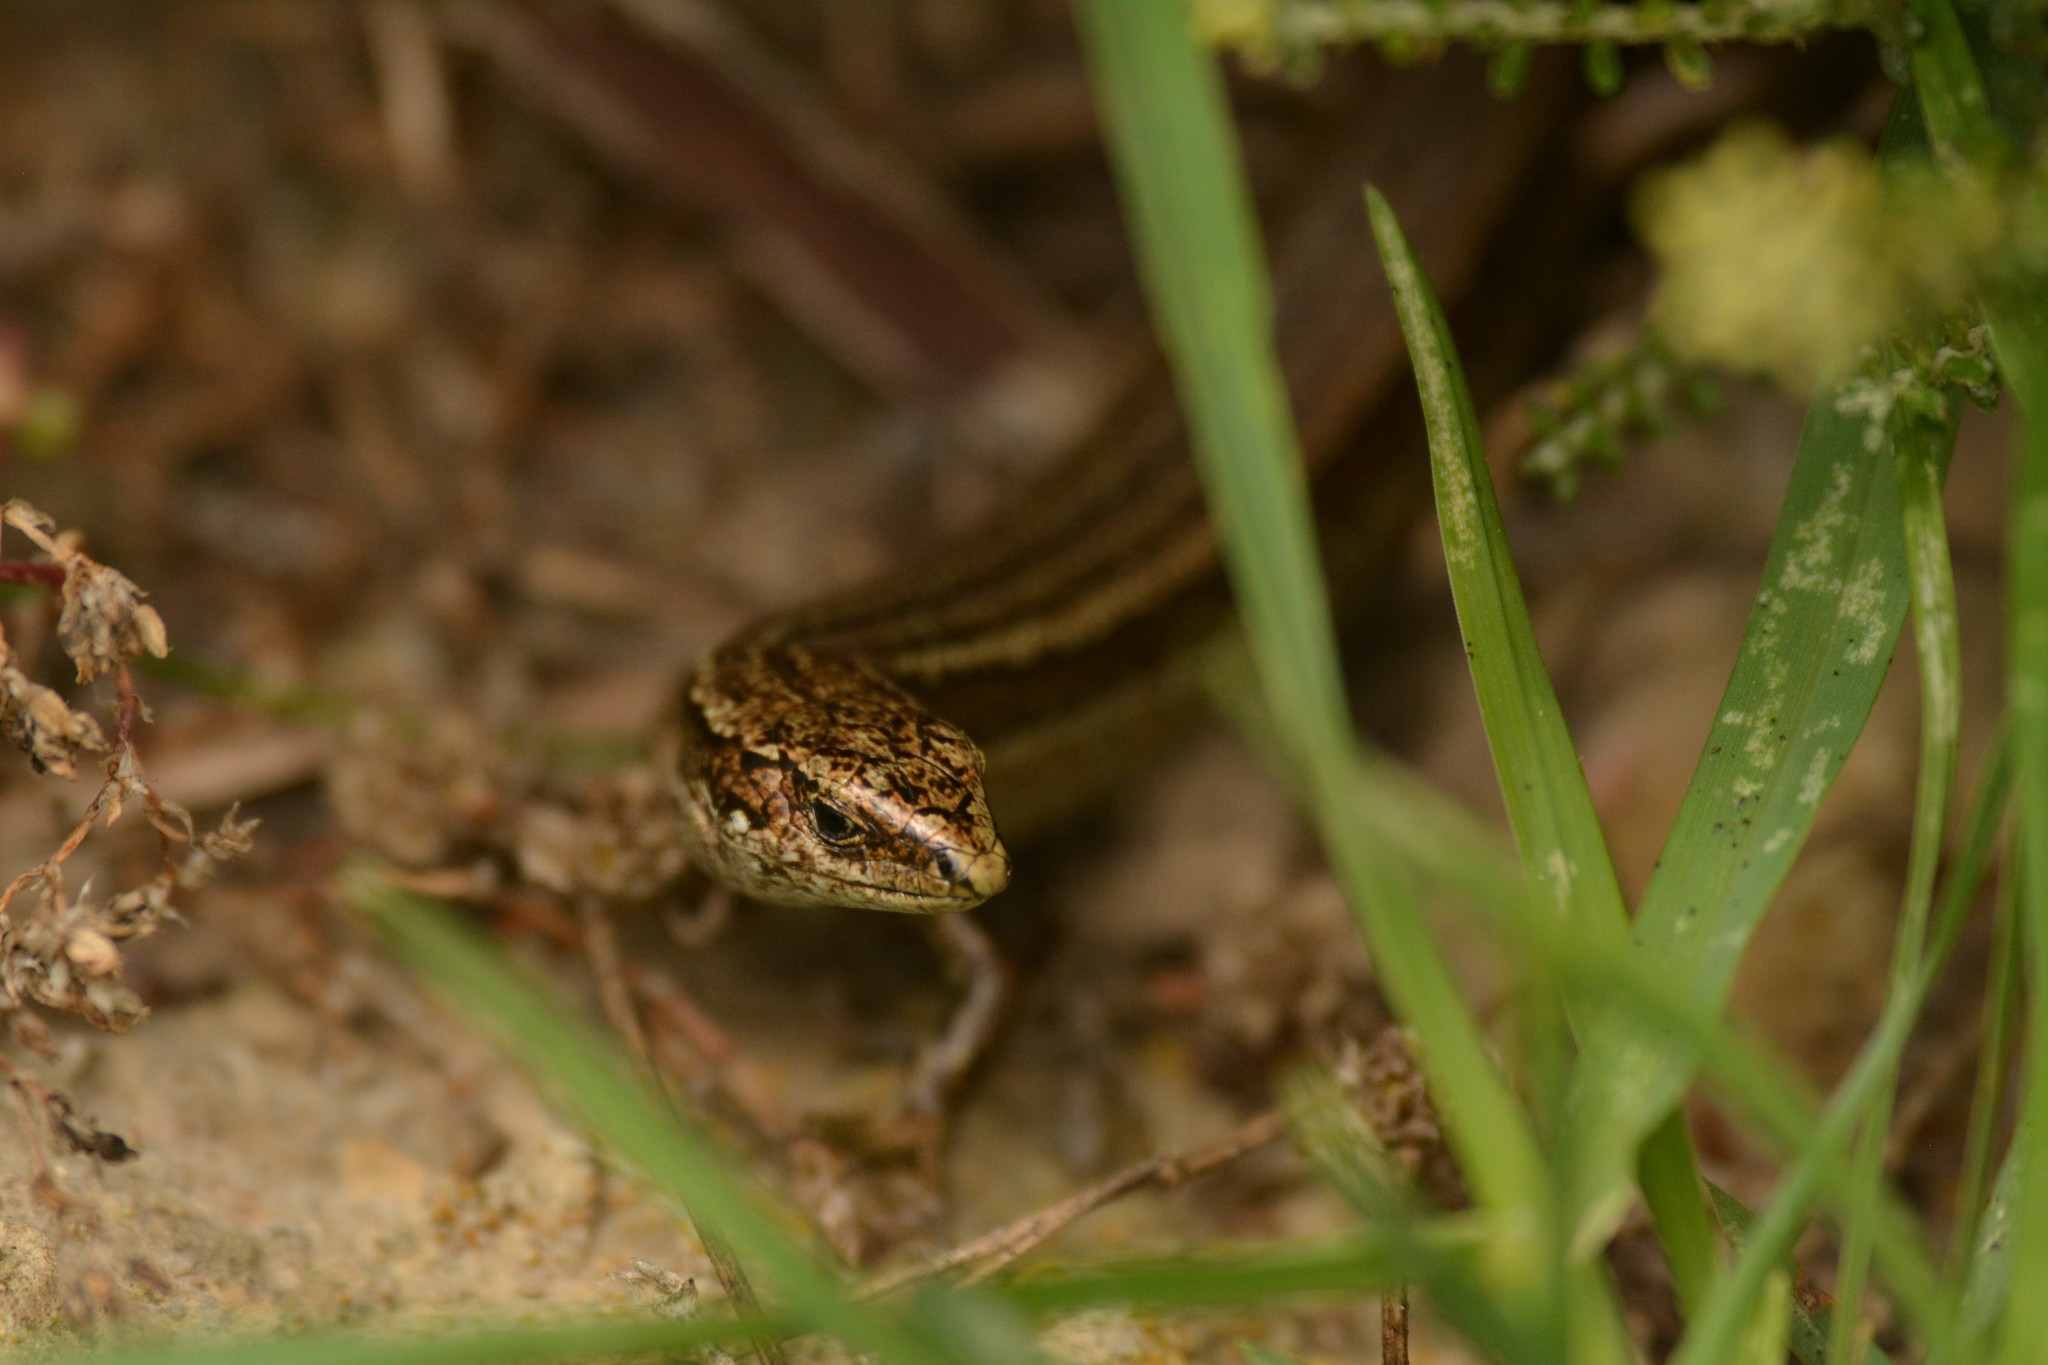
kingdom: Animalia
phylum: Chordata
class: Squamata
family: Scincidae
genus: Oligosoma
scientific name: Oligosoma polychroma
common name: Common new zealand skink
